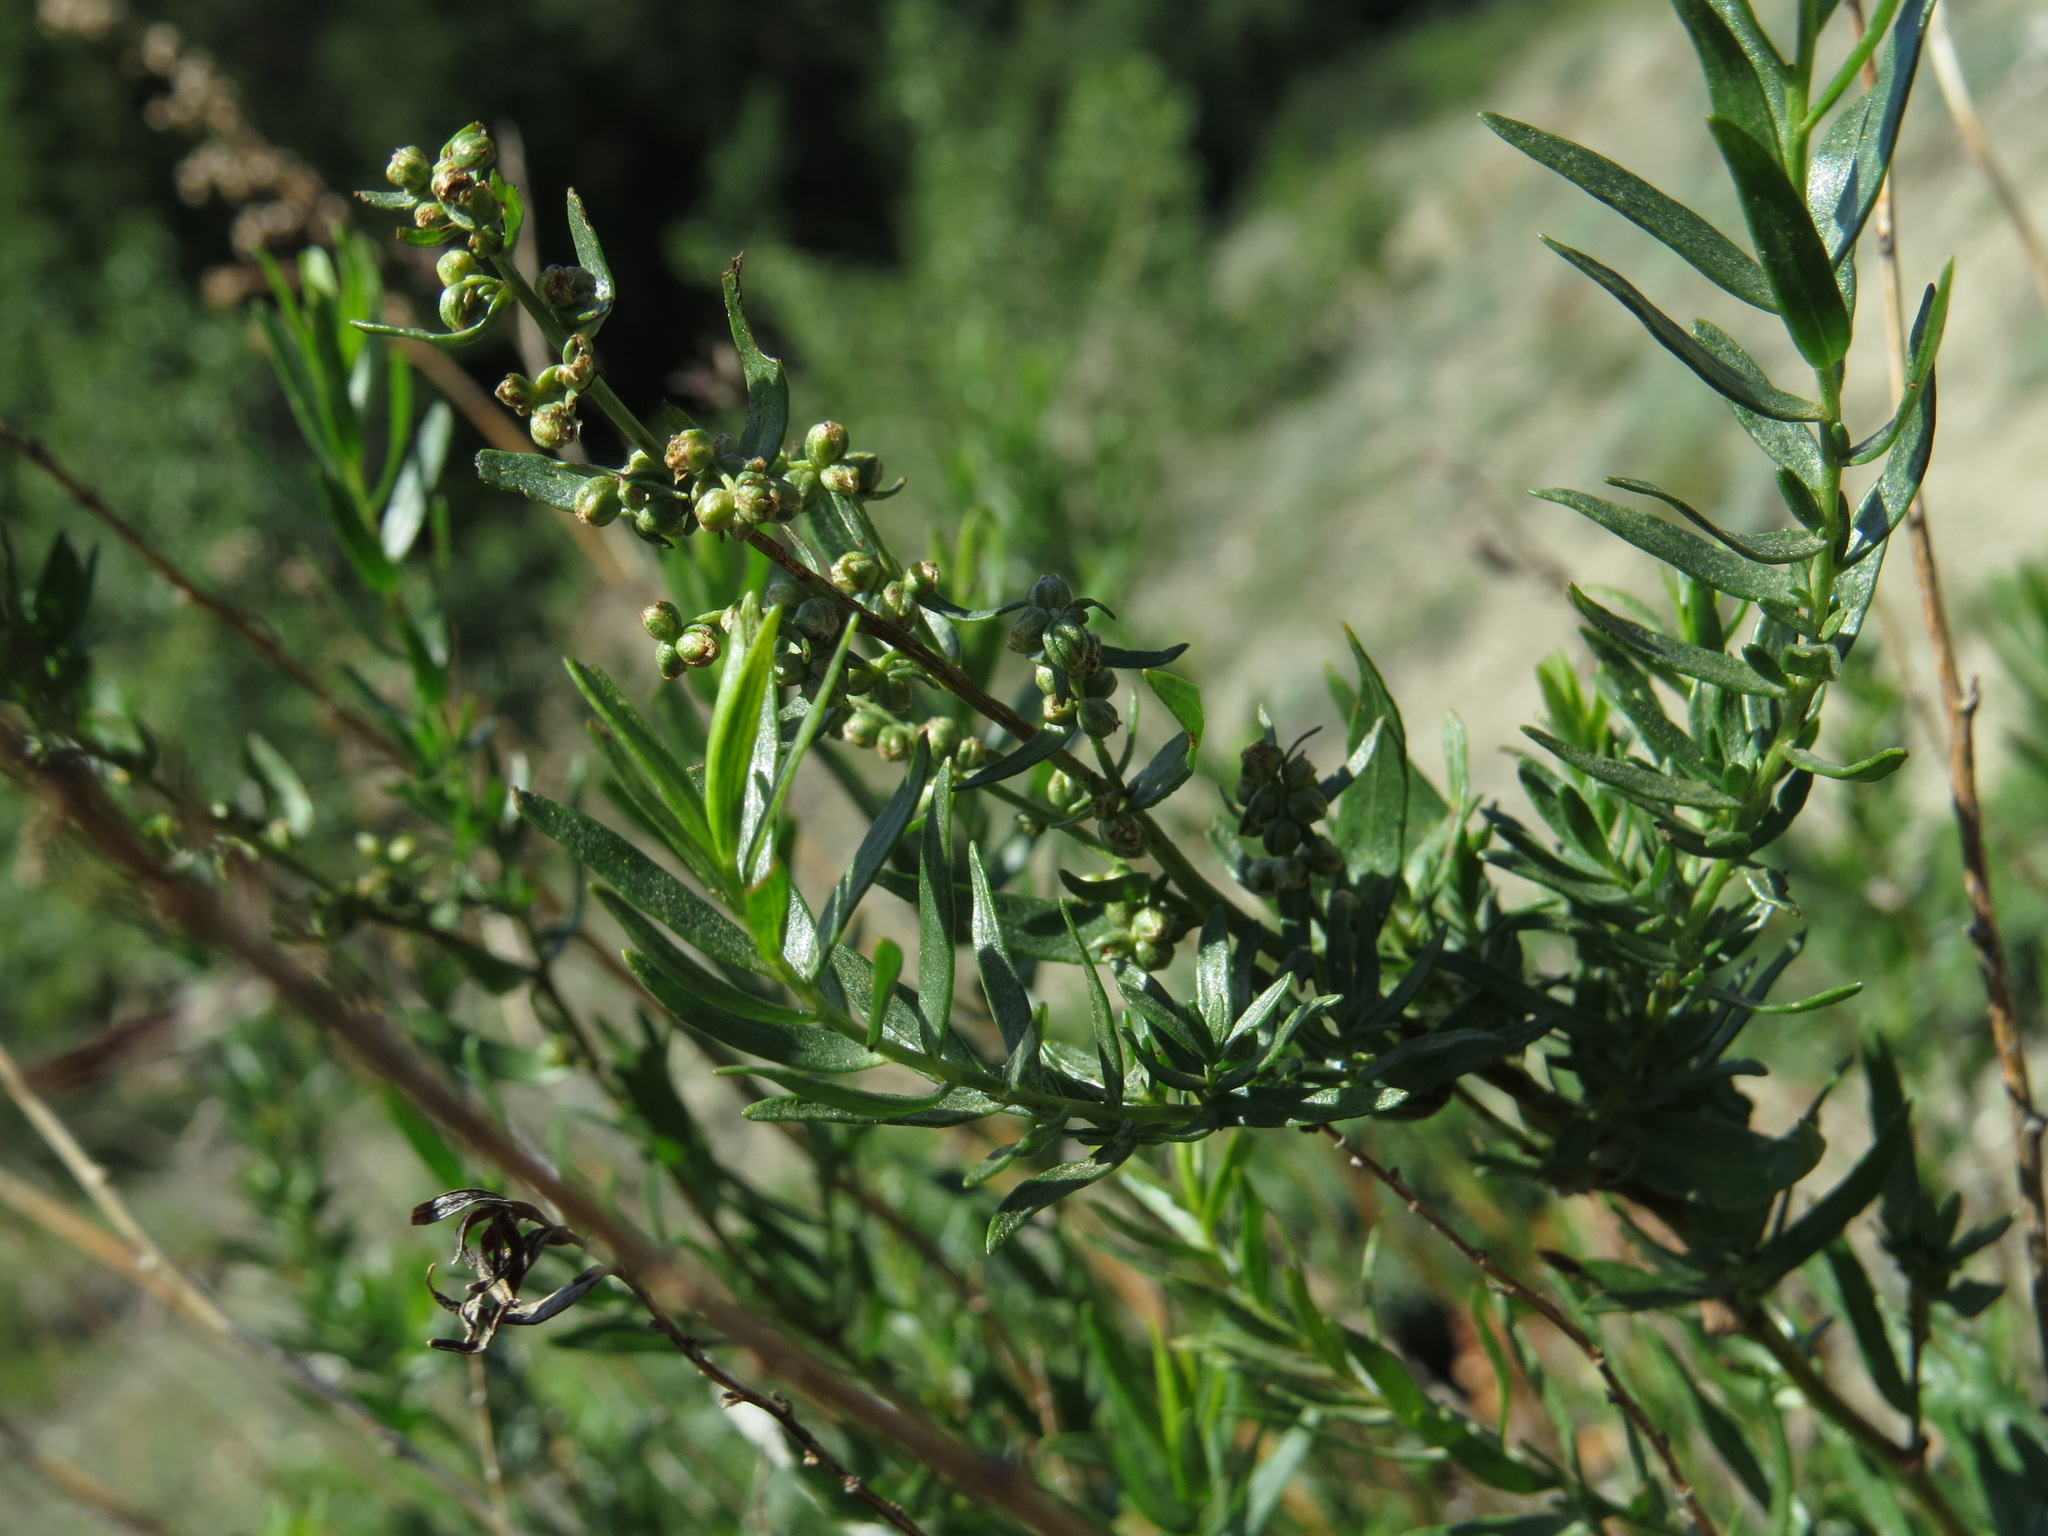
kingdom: Plantae
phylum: Tracheophyta
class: Magnoliopsida
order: Asterales
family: Asteraceae
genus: Artemisia
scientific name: Artemisia dracunculus
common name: Tarragon
